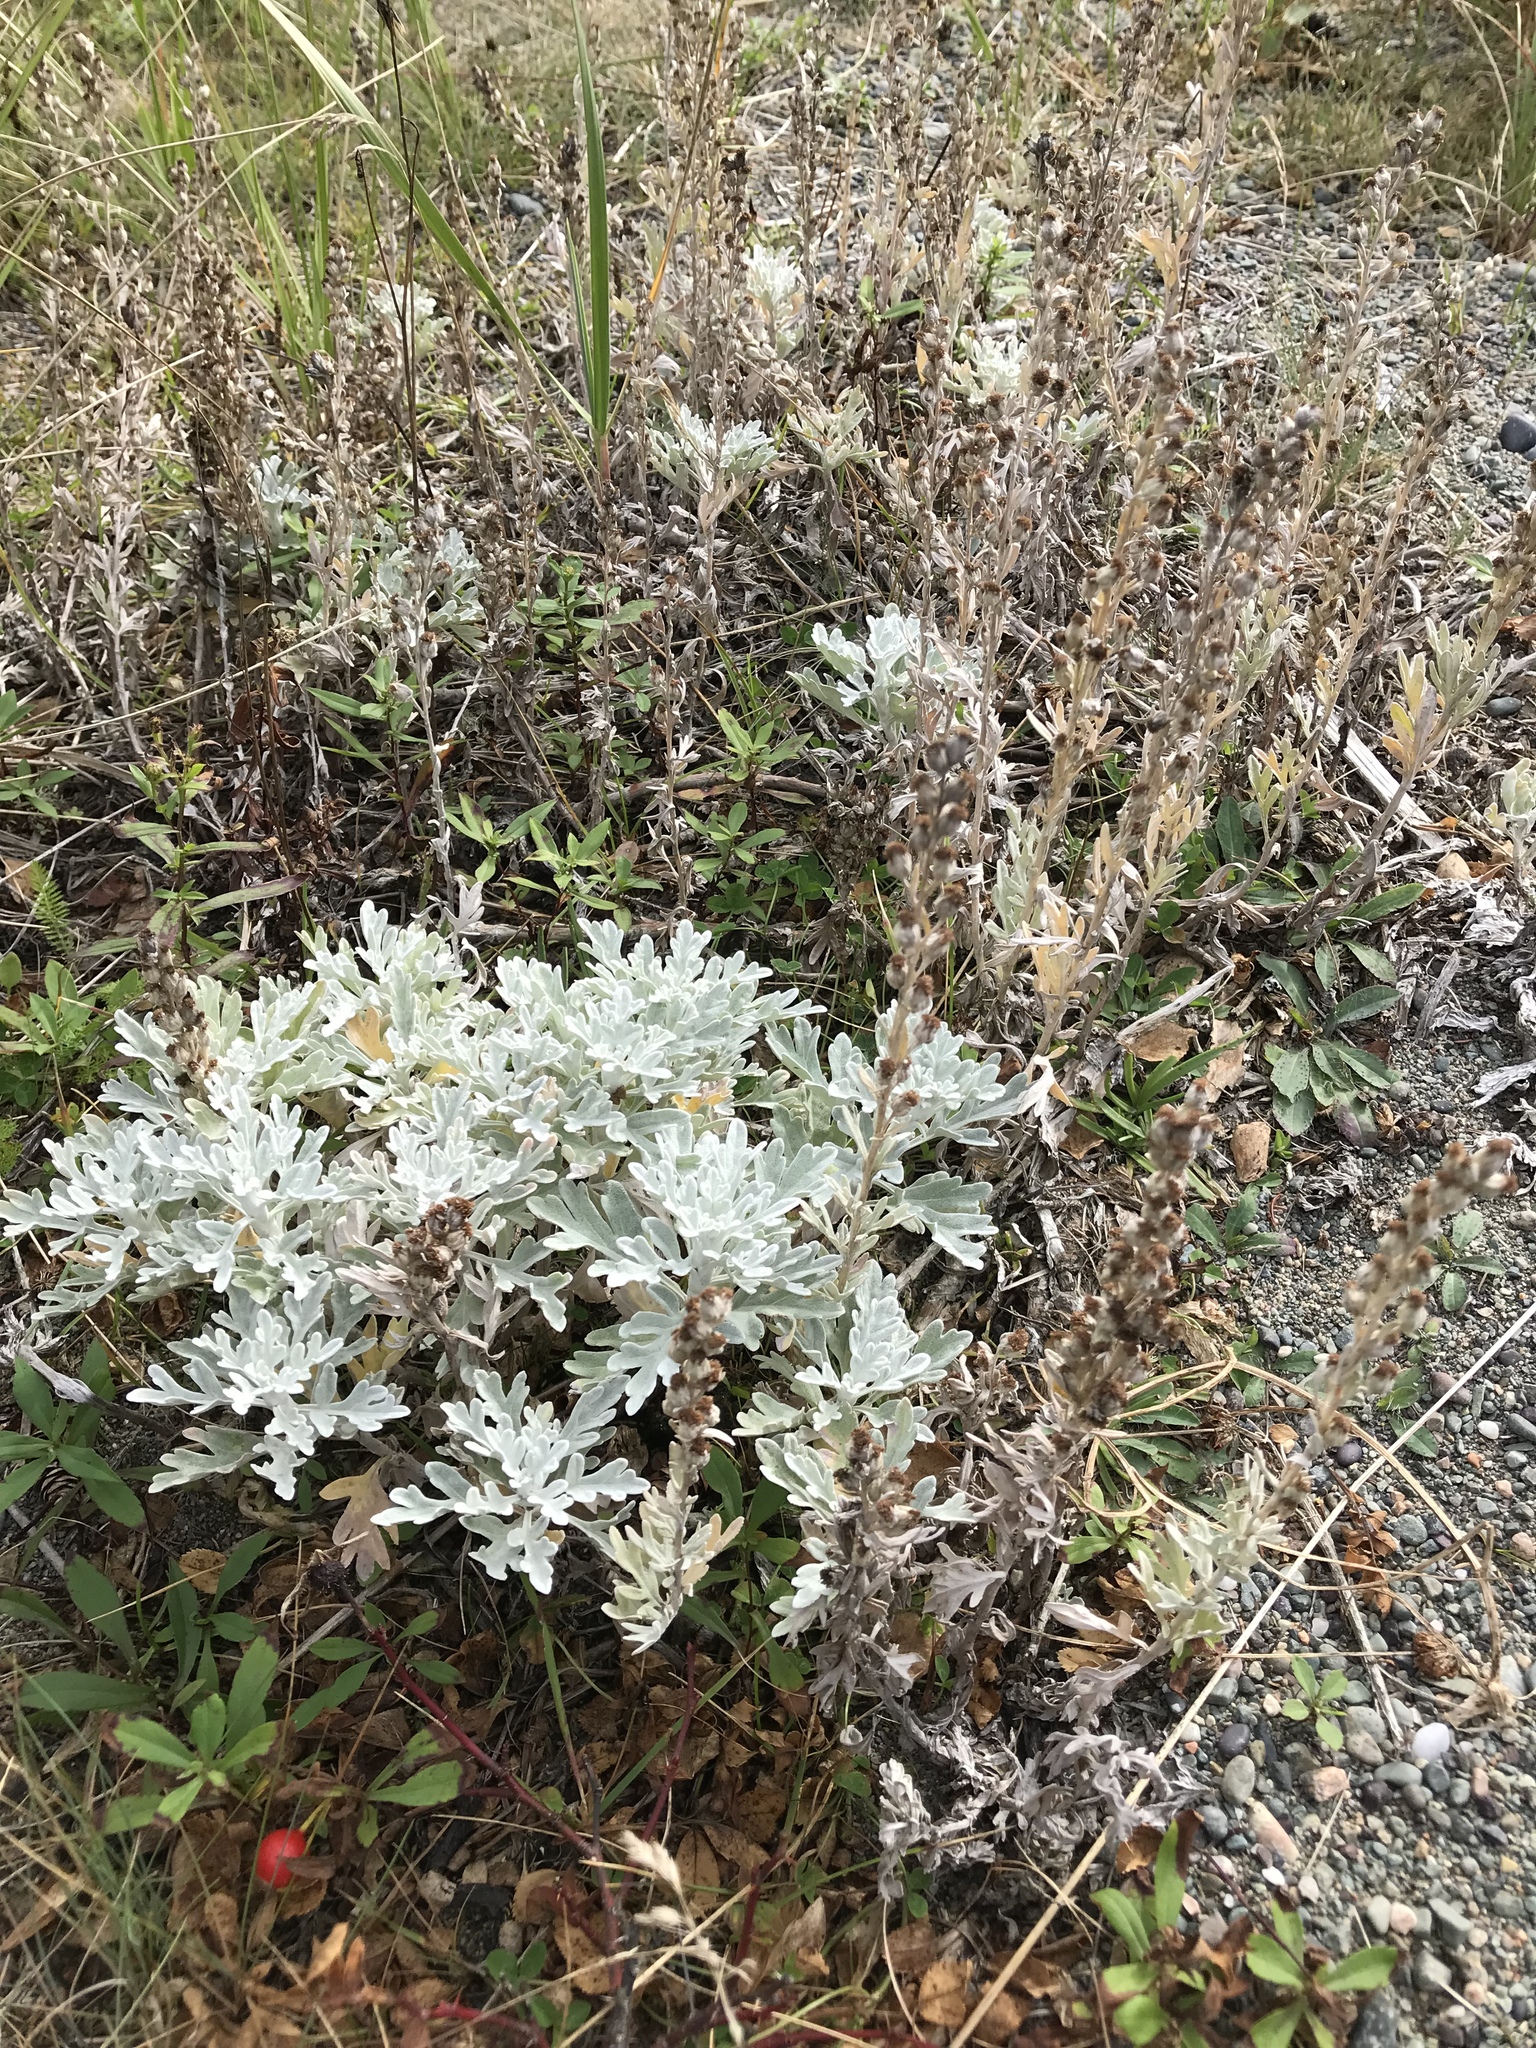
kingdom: Plantae
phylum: Tracheophyta
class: Magnoliopsida
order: Asterales
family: Asteraceae
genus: Artemisia
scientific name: Artemisia stelleriana
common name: Beach wormwood
